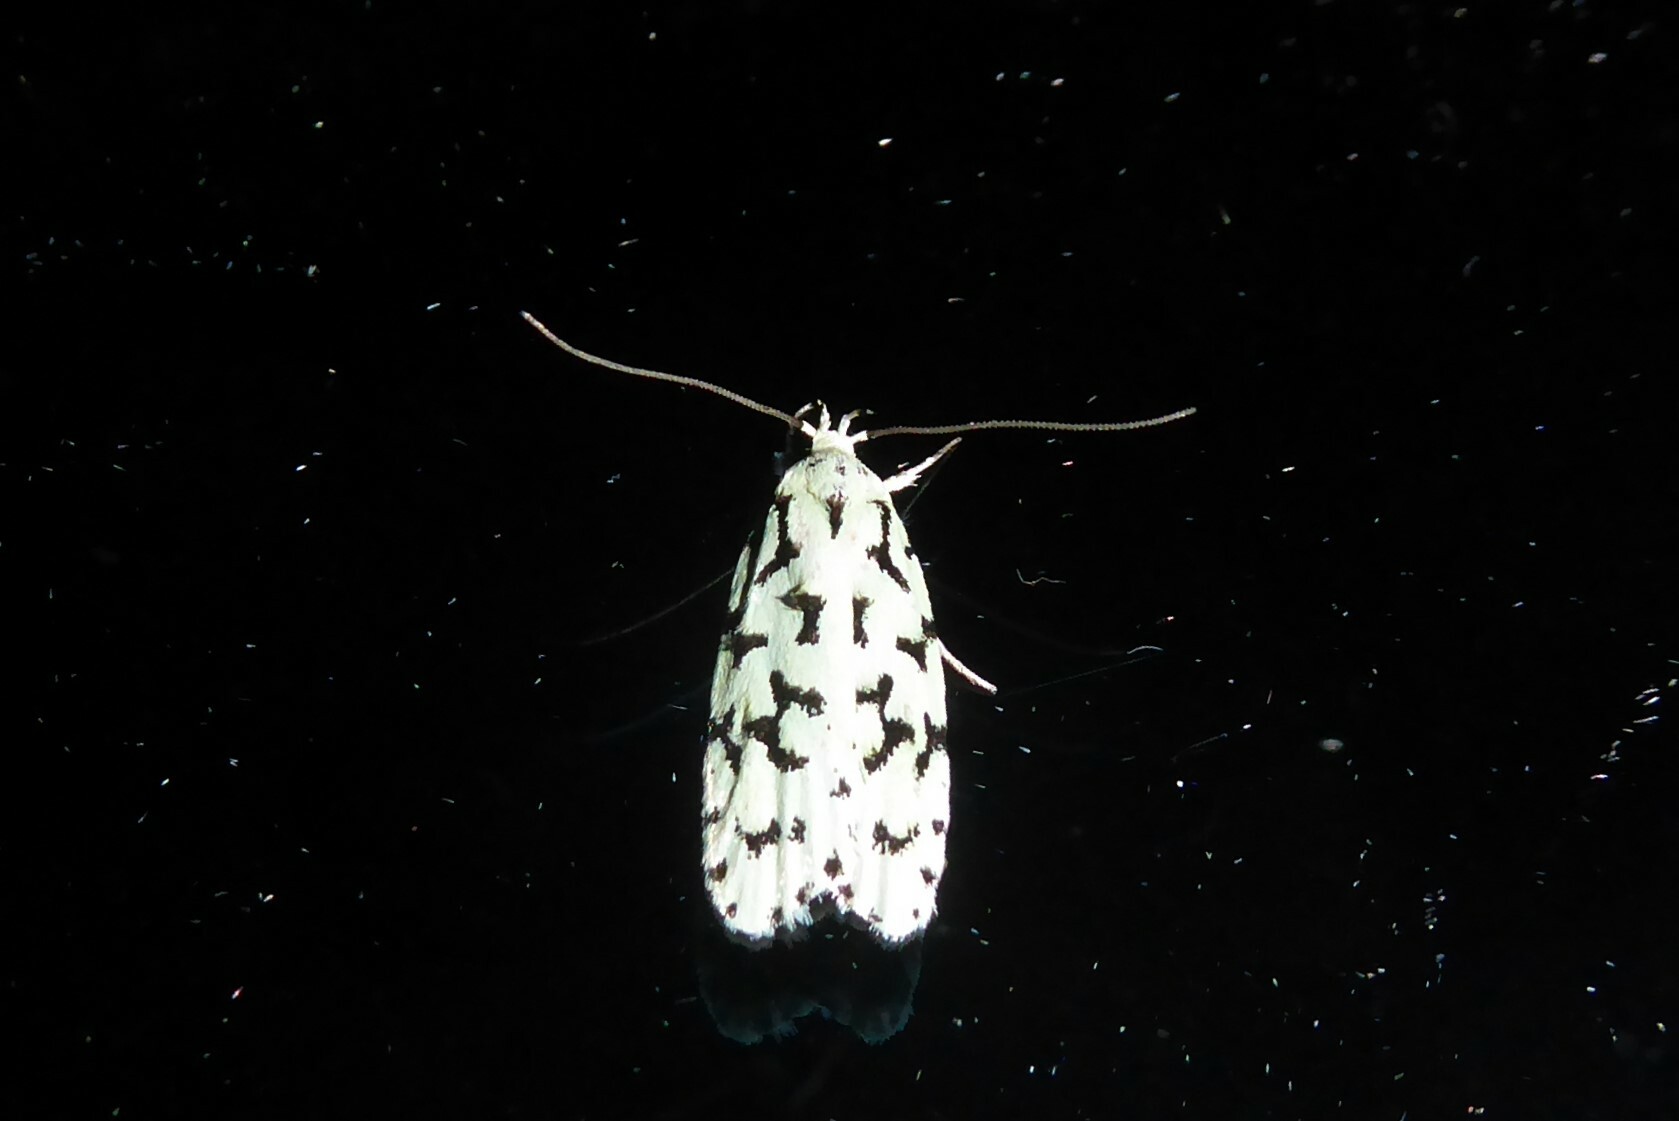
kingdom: Animalia
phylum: Arthropoda
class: Insecta
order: Lepidoptera
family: Oecophoridae
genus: Izatha
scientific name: Izatha huttoni
